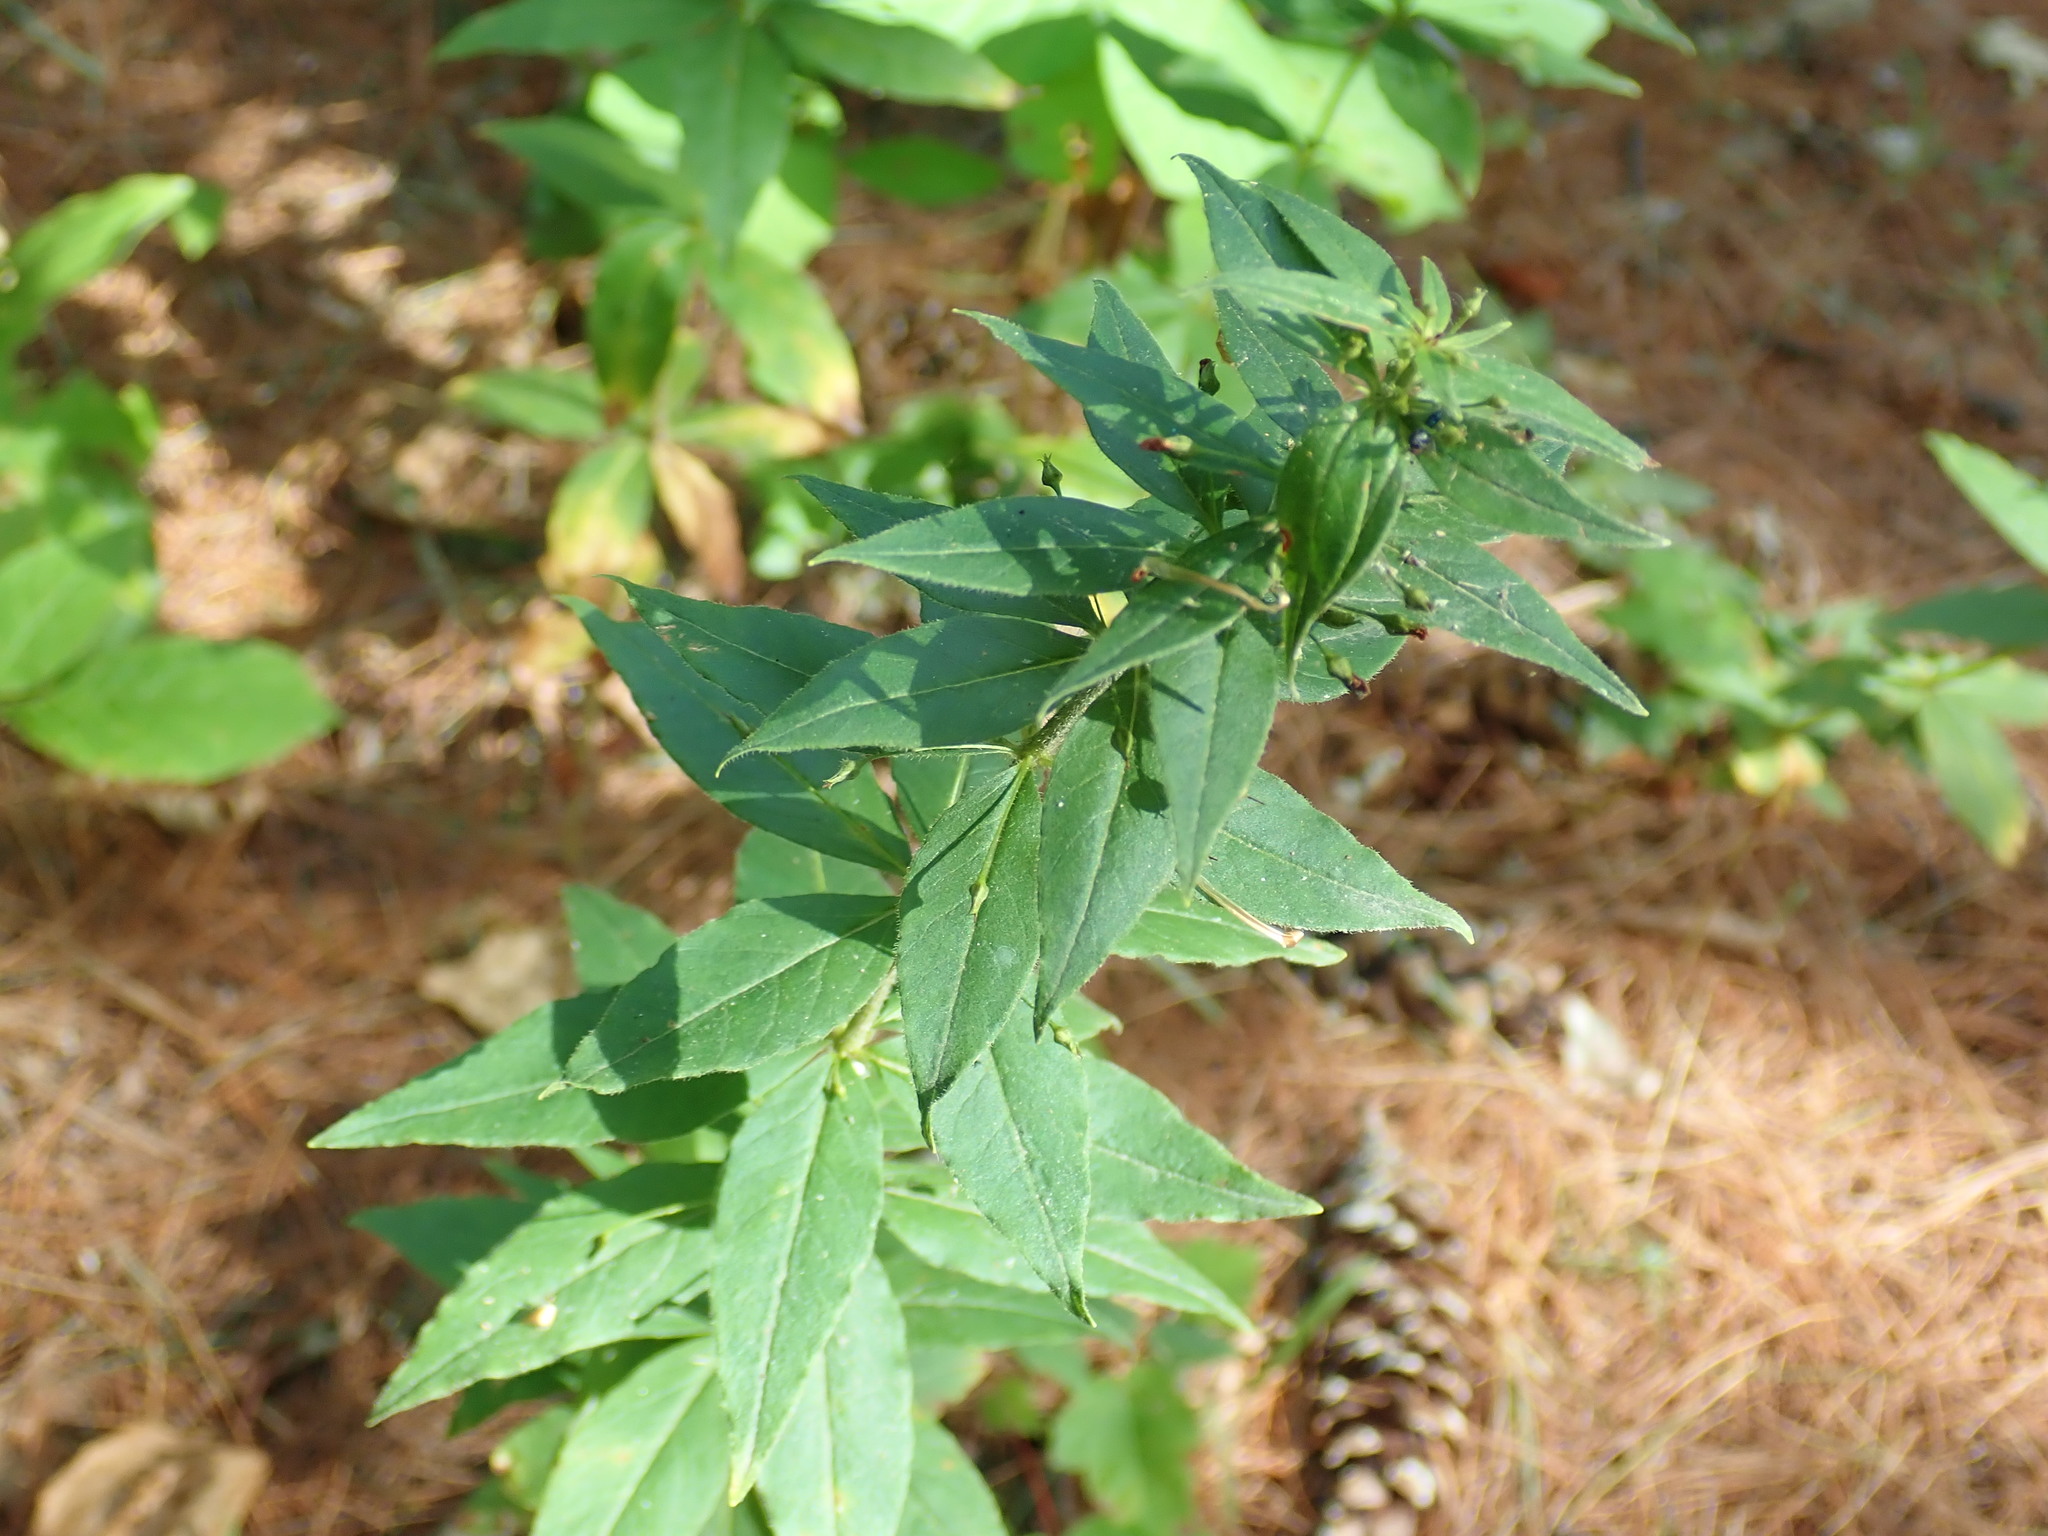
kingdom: Plantae
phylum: Tracheophyta
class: Magnoliopsida
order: Ericales
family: Primulaceae
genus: Lysimachia
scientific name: Lysimachia quadrifolia
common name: Whorled loosestrife
